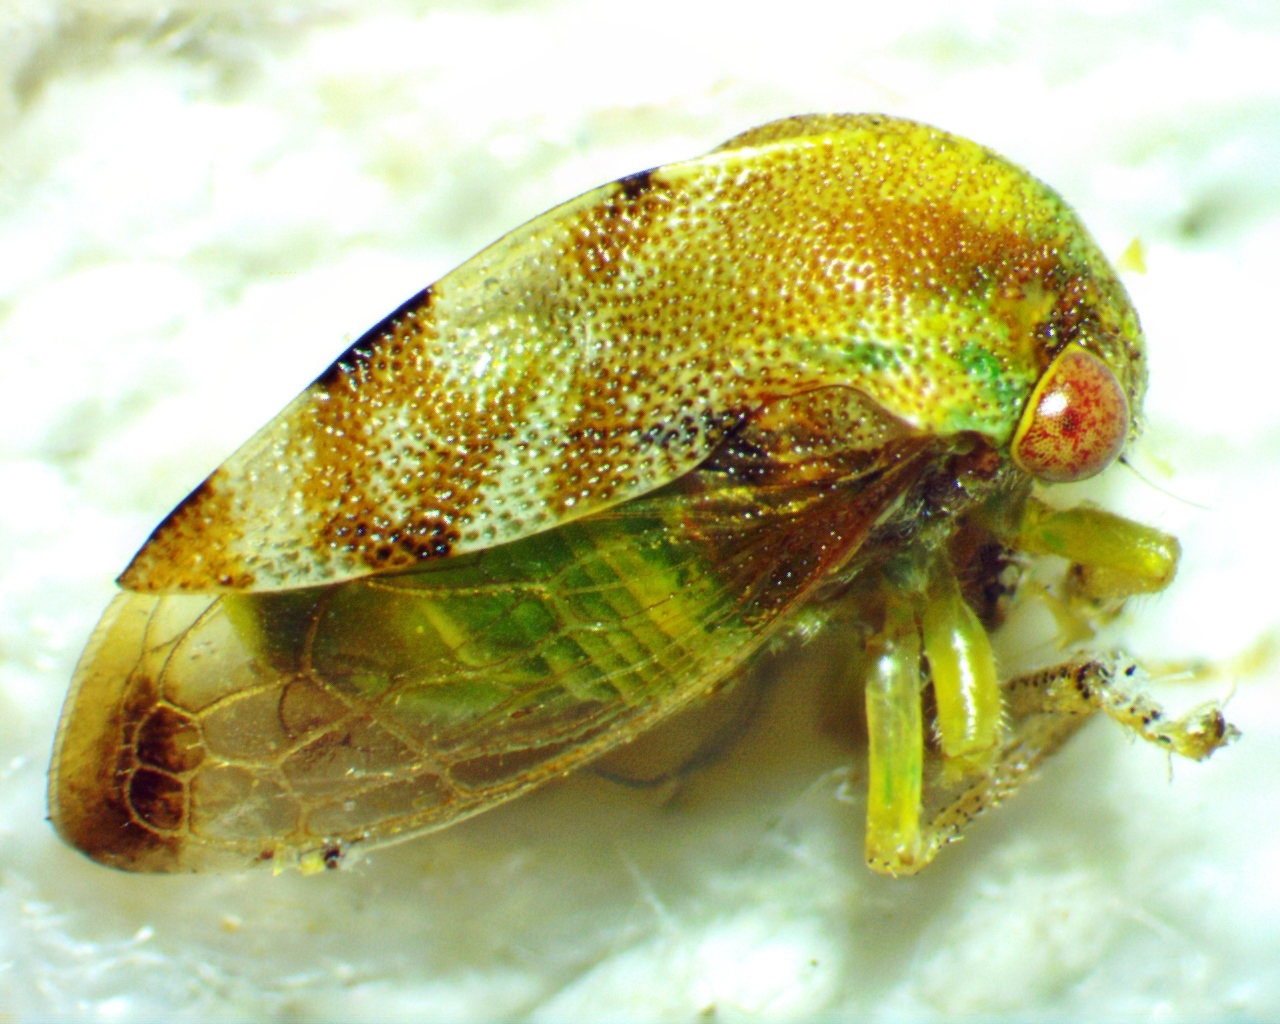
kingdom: Animalia
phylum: Arthropoda
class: Insecta
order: Hemiptera
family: Membracidae
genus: Cyrtolobus
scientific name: Cyrtolobus togatus
